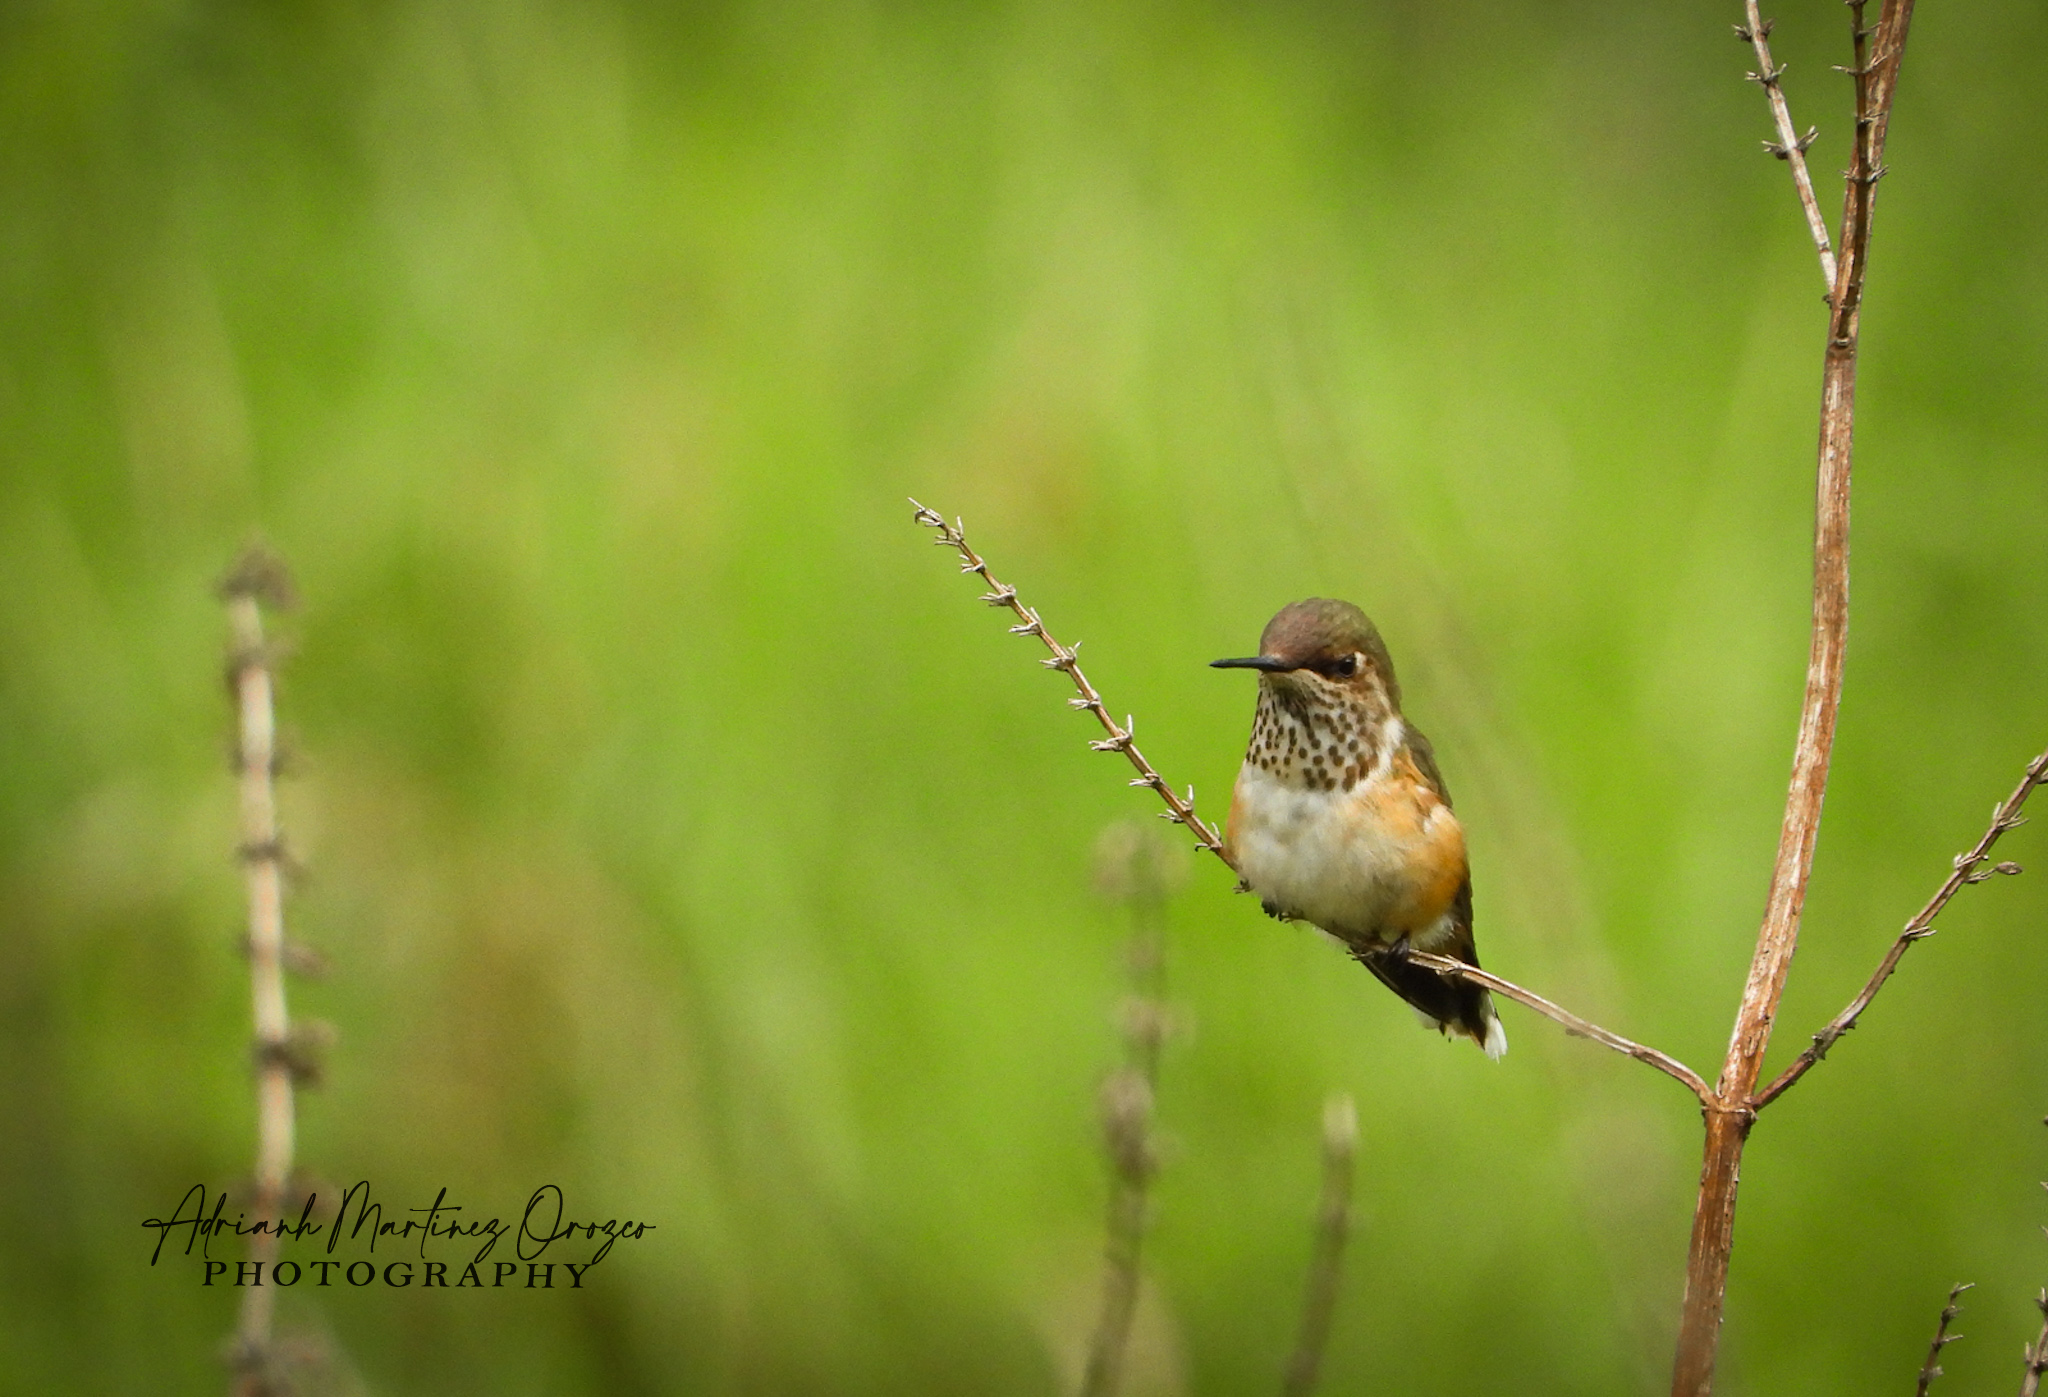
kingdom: Animalia
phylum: Chordata
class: Aves
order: Apodiformes
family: Trochilidae
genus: Selasphorus
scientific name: Selasphorus heloisa
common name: Bumblebee hummingbird
